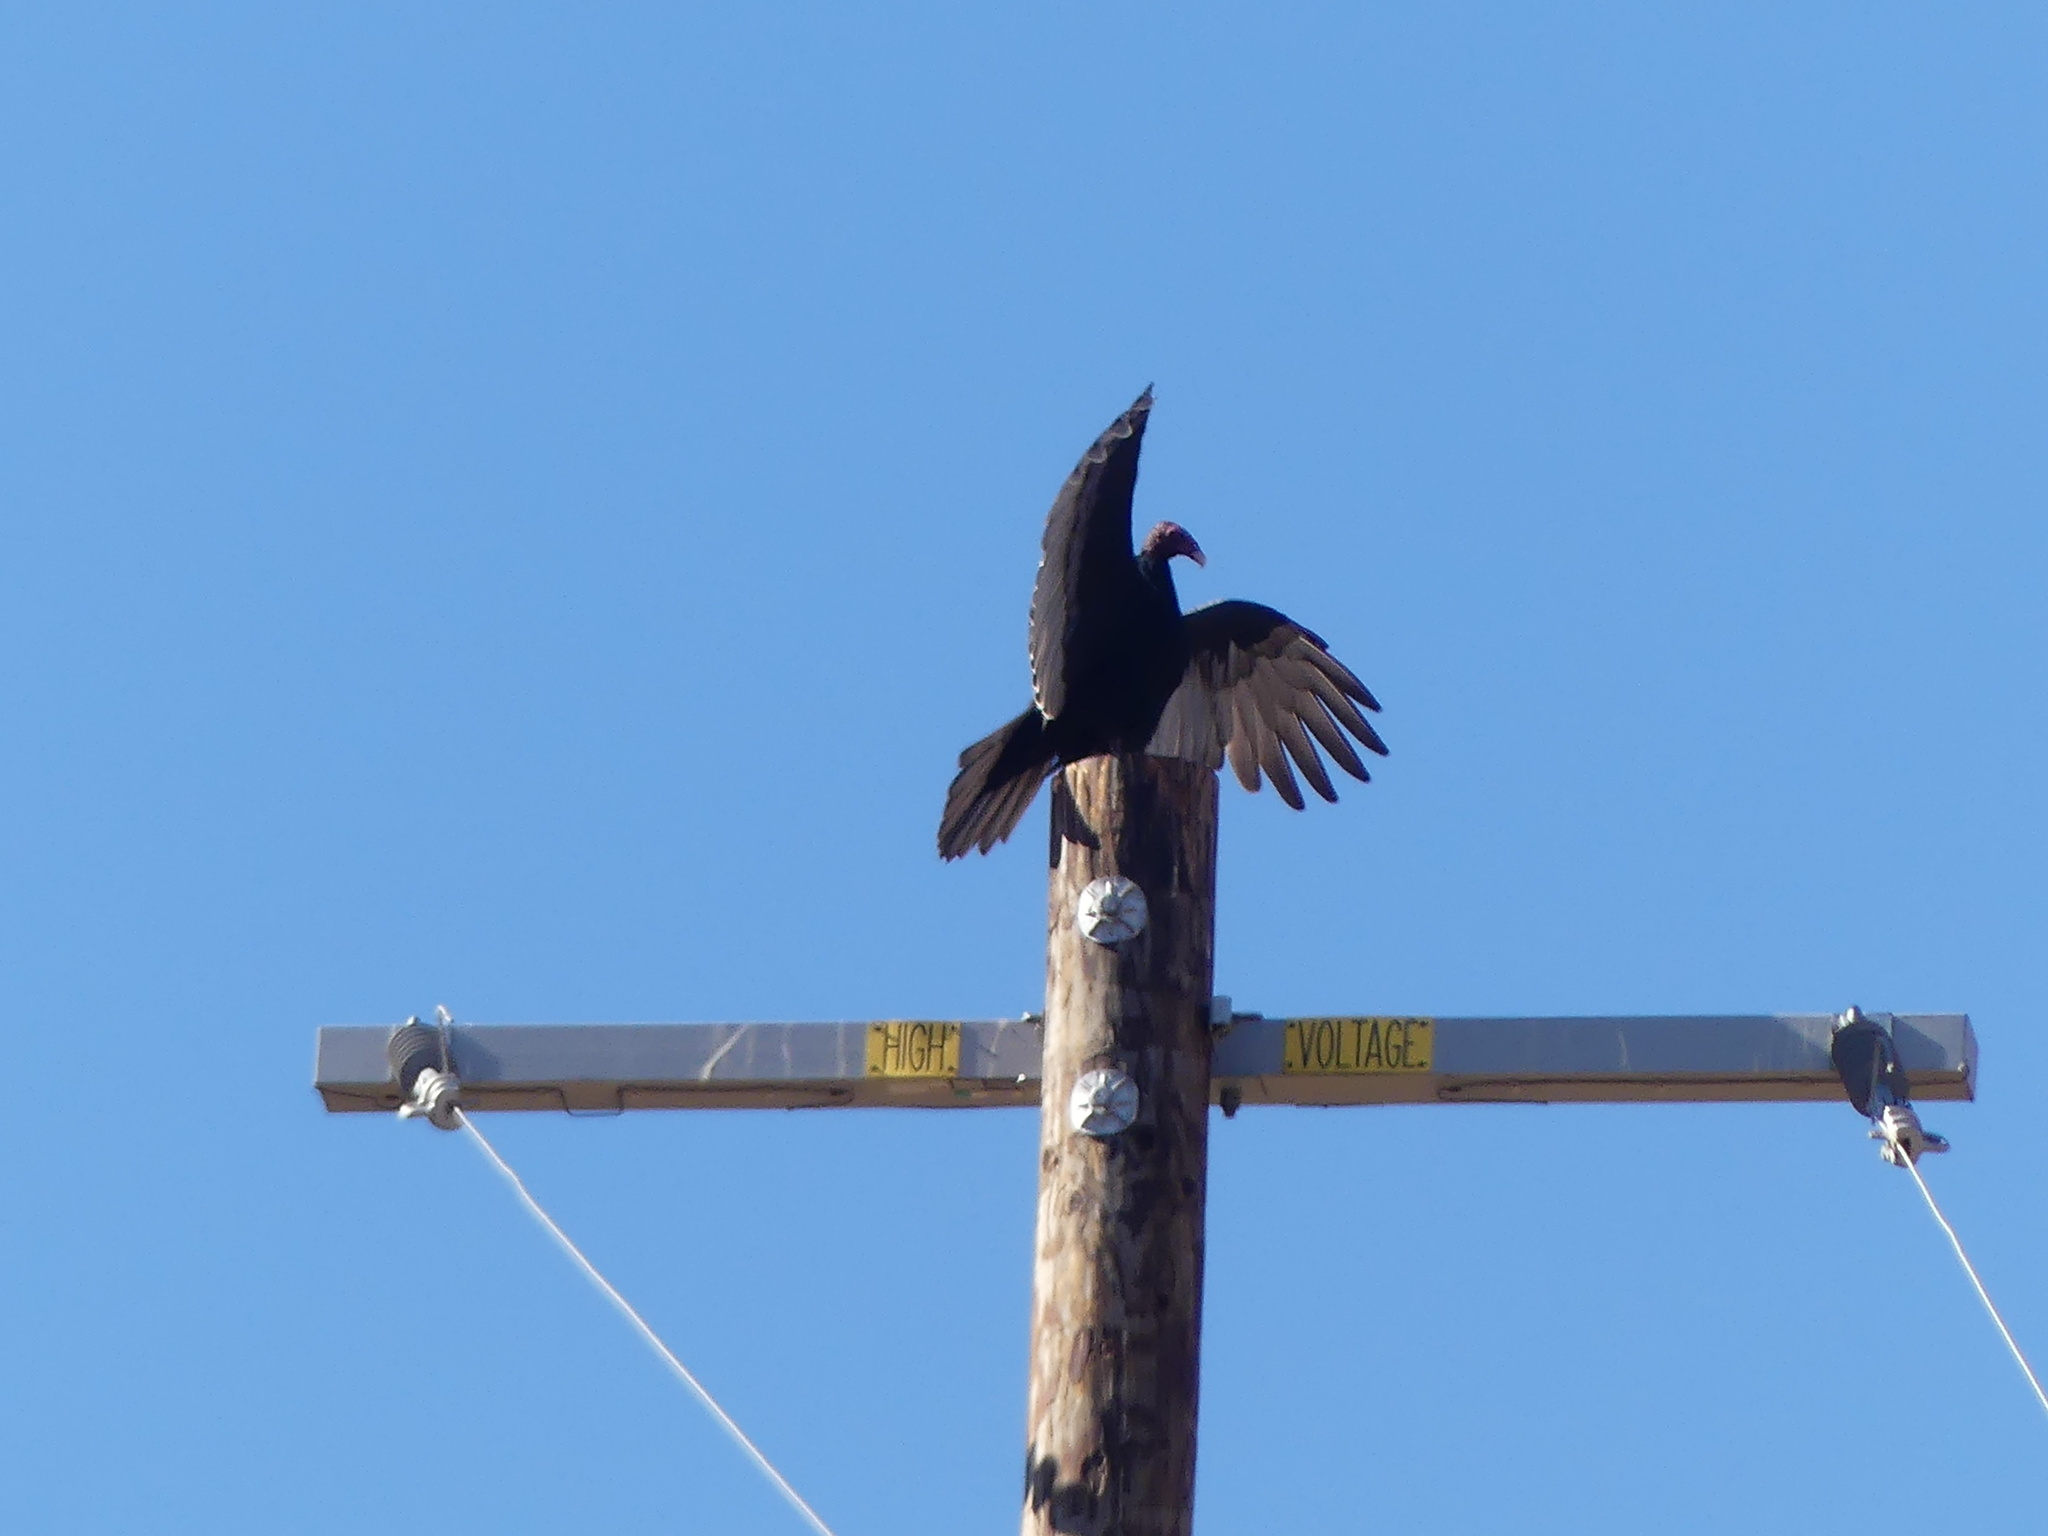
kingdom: Animalia
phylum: Chordata
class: Aves
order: Accipitriformes
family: Cathartidae
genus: Cathartes
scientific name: Cathartes aura
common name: Turkey vulture
